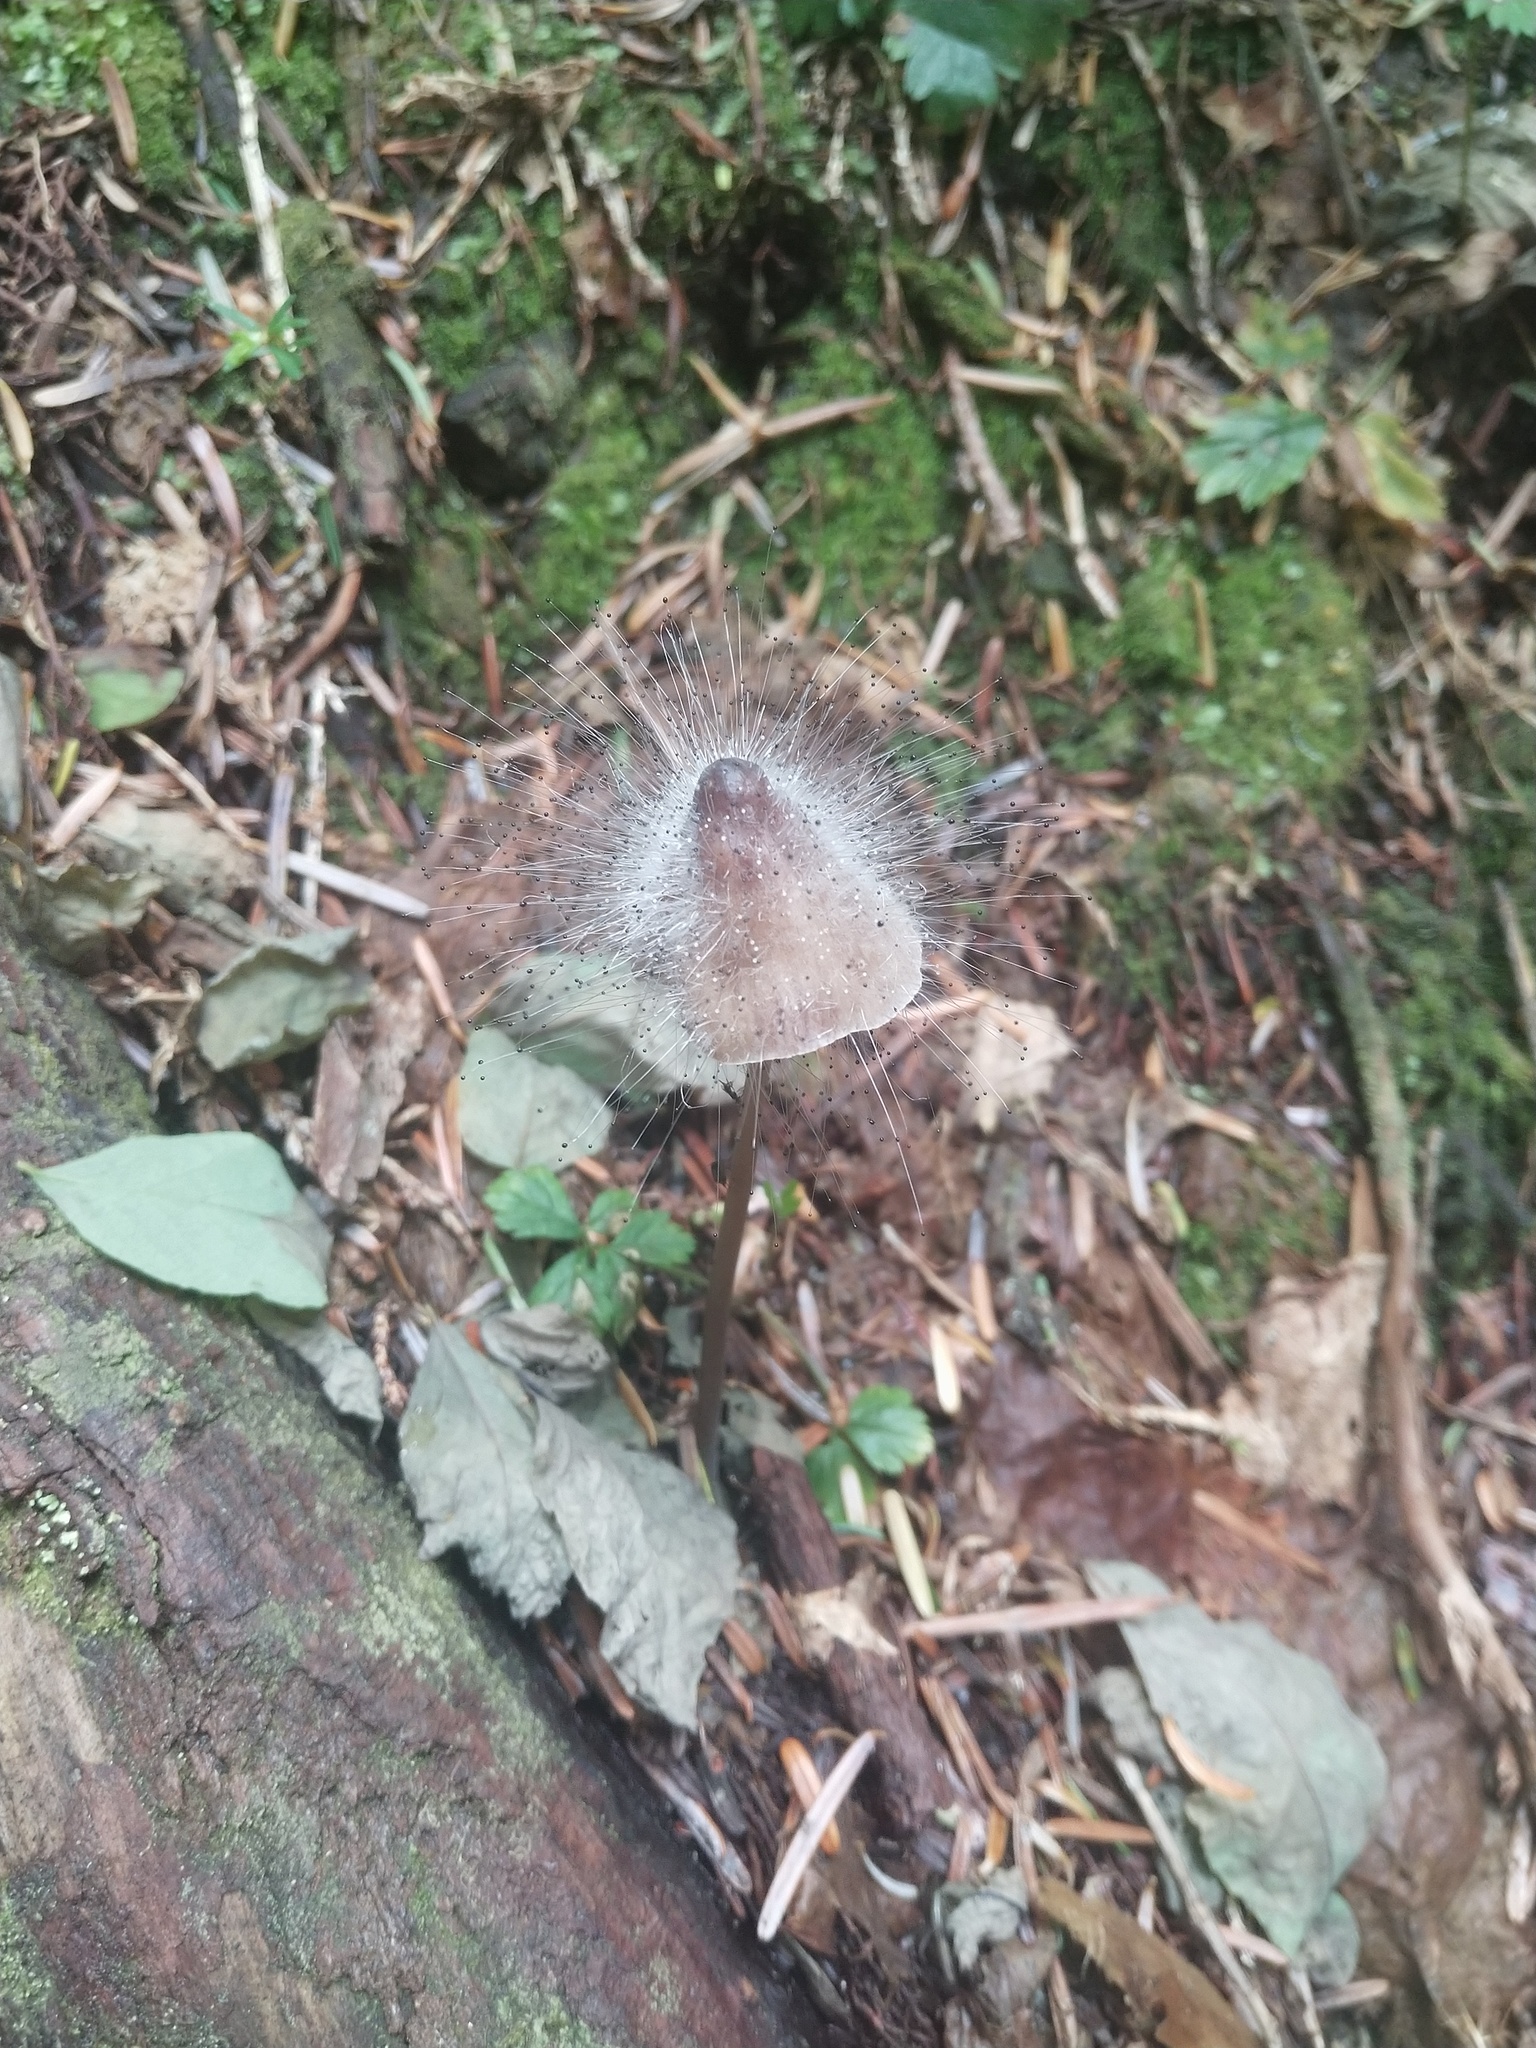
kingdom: Fungi
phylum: Mucoromycota
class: Mucoromycetes
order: Mucorales
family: Phycomycetaceae
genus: Spinellus
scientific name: Spinellus fusiger
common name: Bonnet mould
